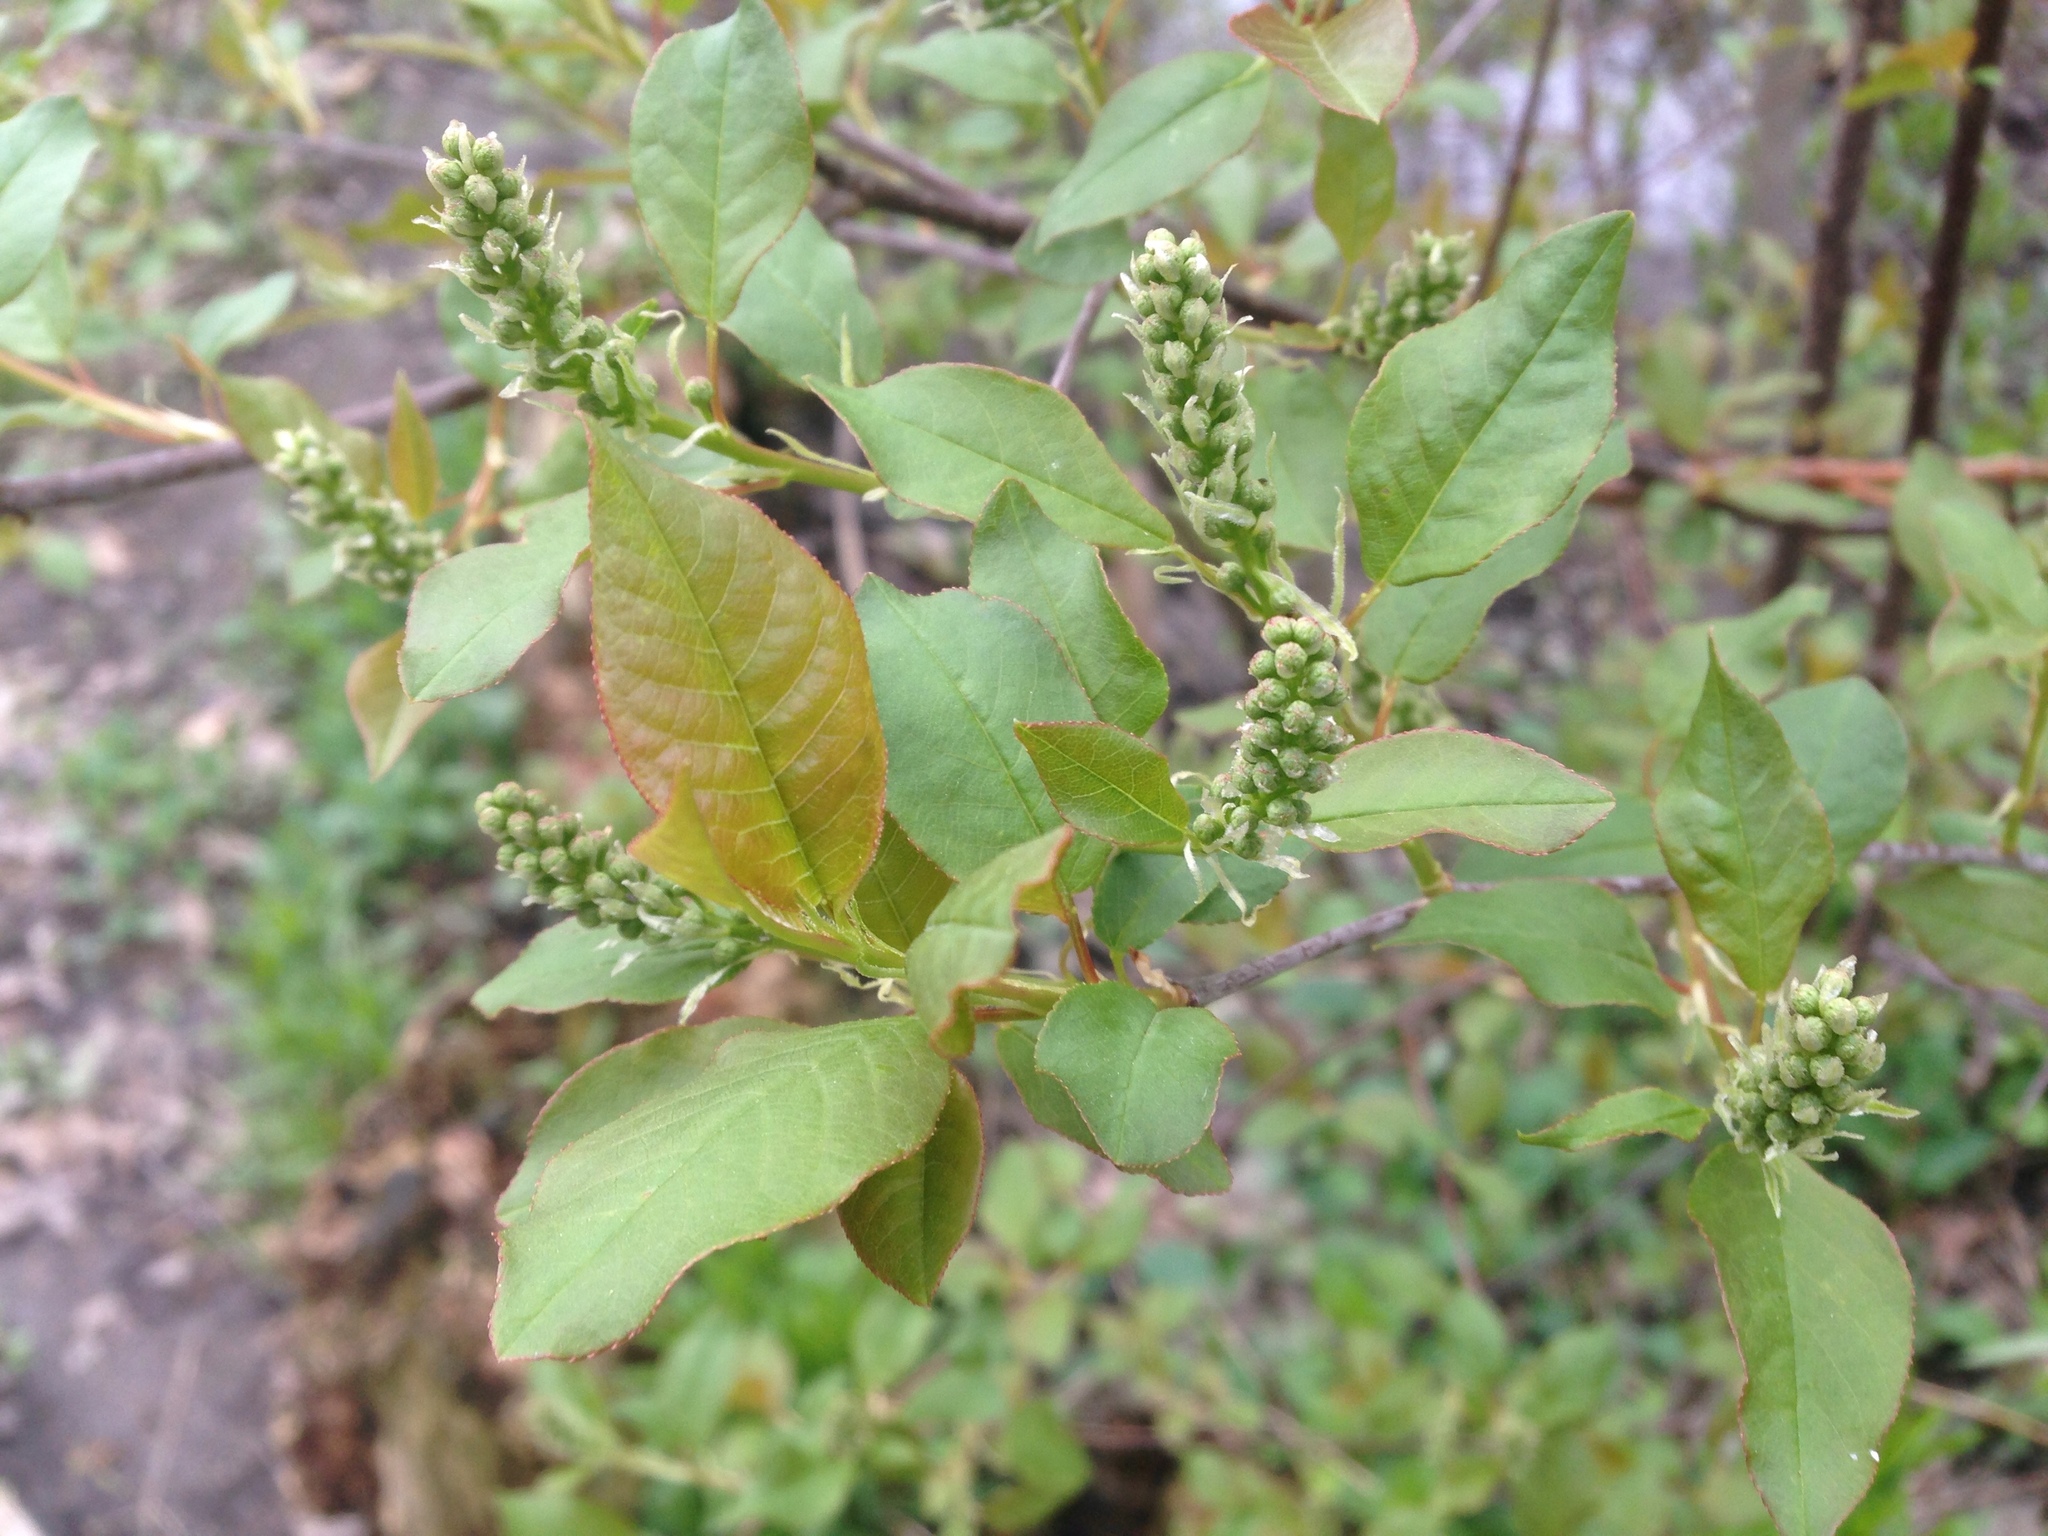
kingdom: Plantae
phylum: Tracheophyta
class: Magnoliopsida
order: Rosales
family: Rosaceae
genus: Prunus
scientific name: Prunus virginiana
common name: Chokecherry
